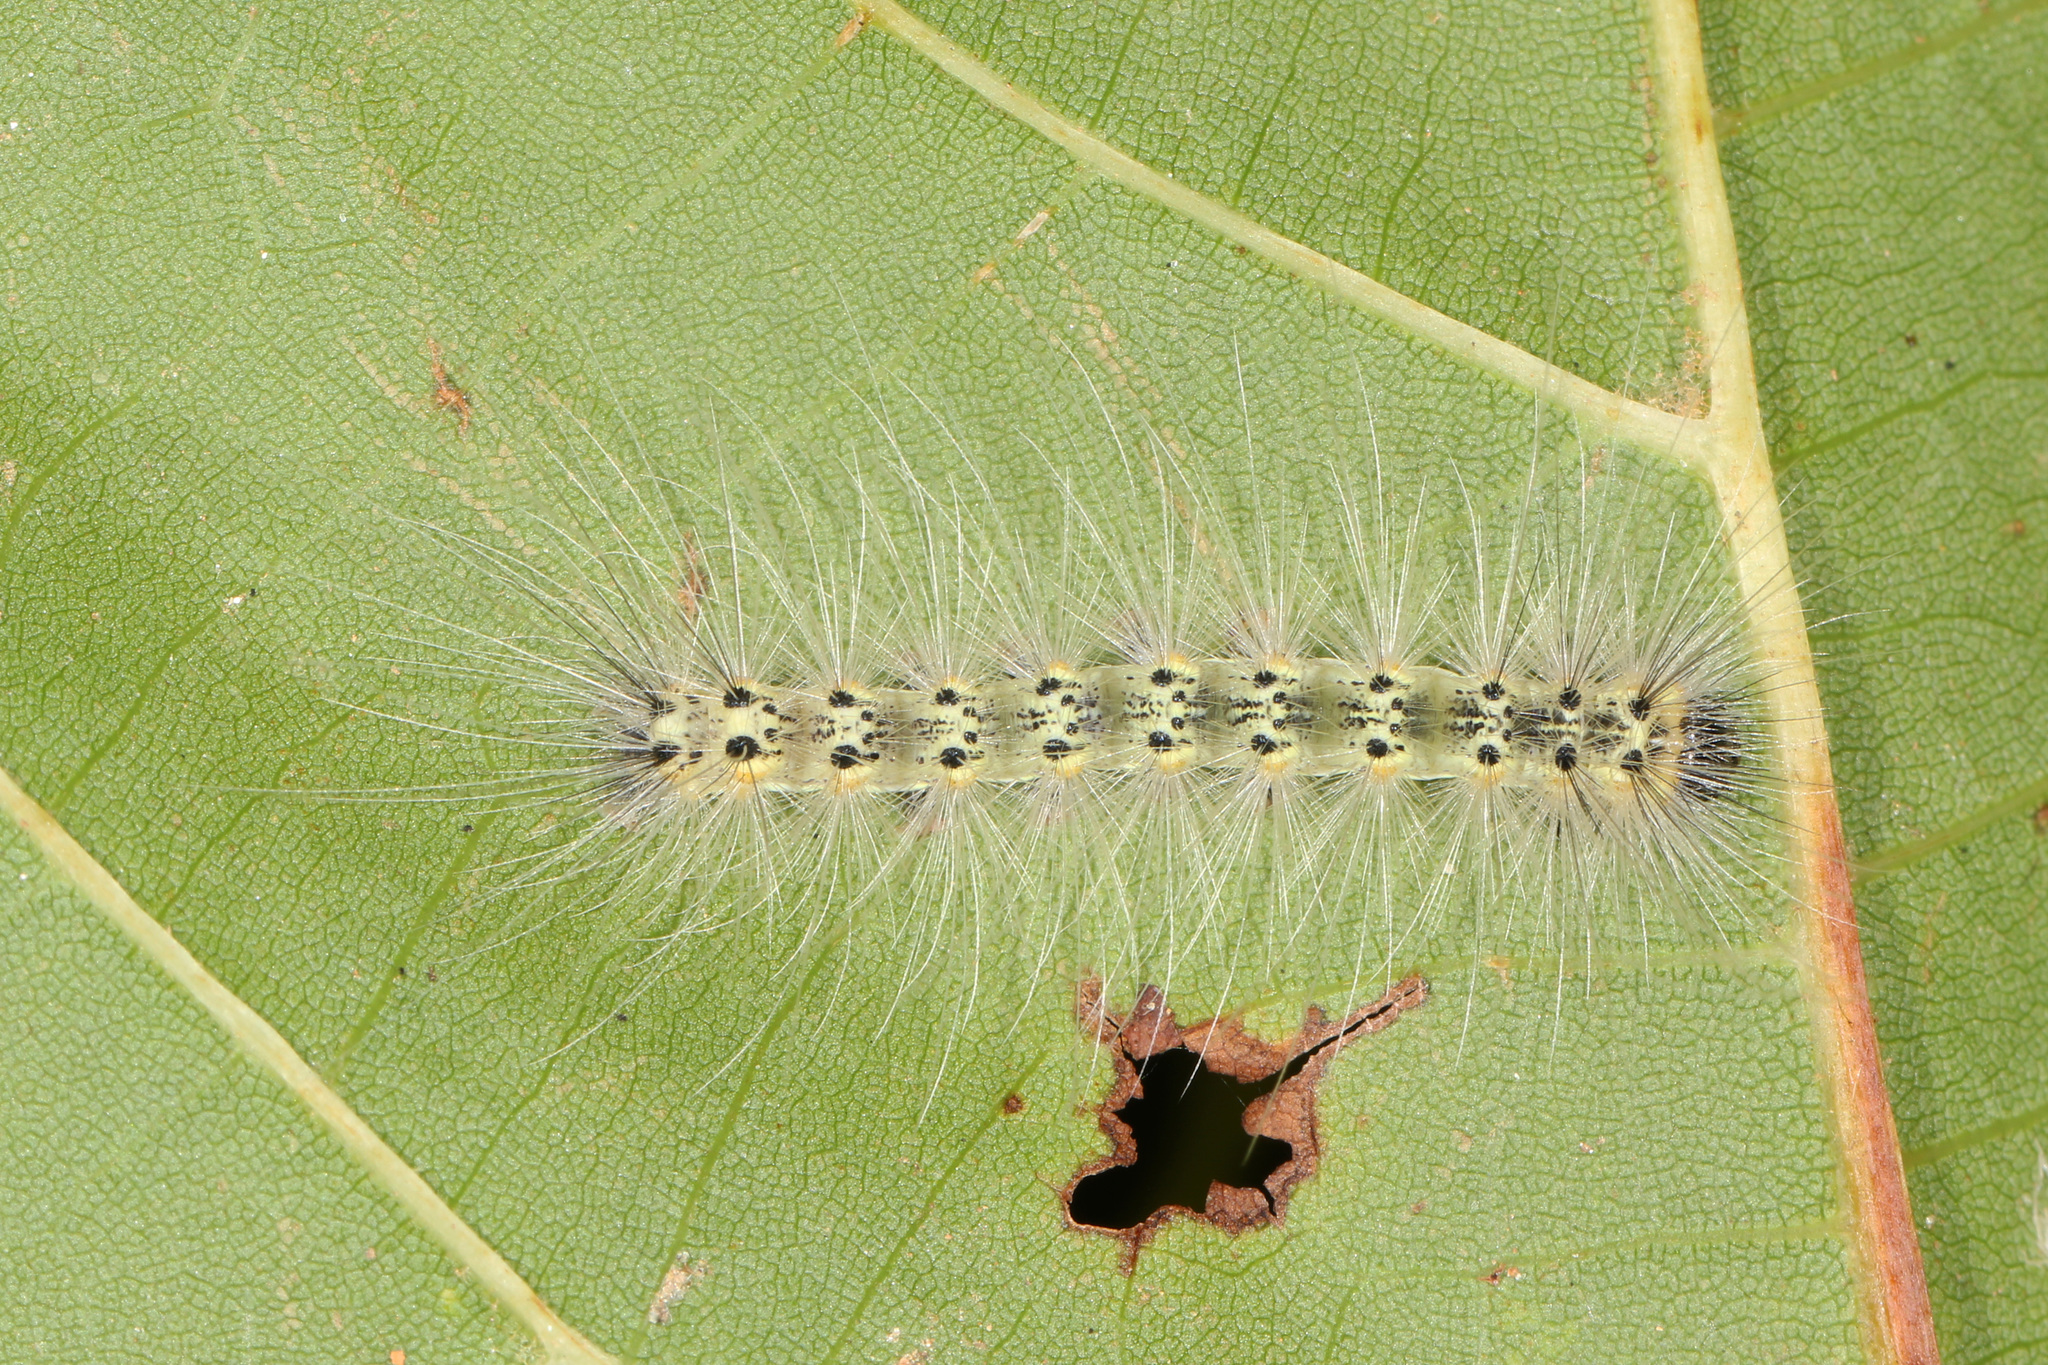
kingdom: Animalia
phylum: Arthropoda
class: Insecta
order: Lepidoptera
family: Erebidae
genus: Hyphantria
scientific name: Hyphantria cunea
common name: American white moth
